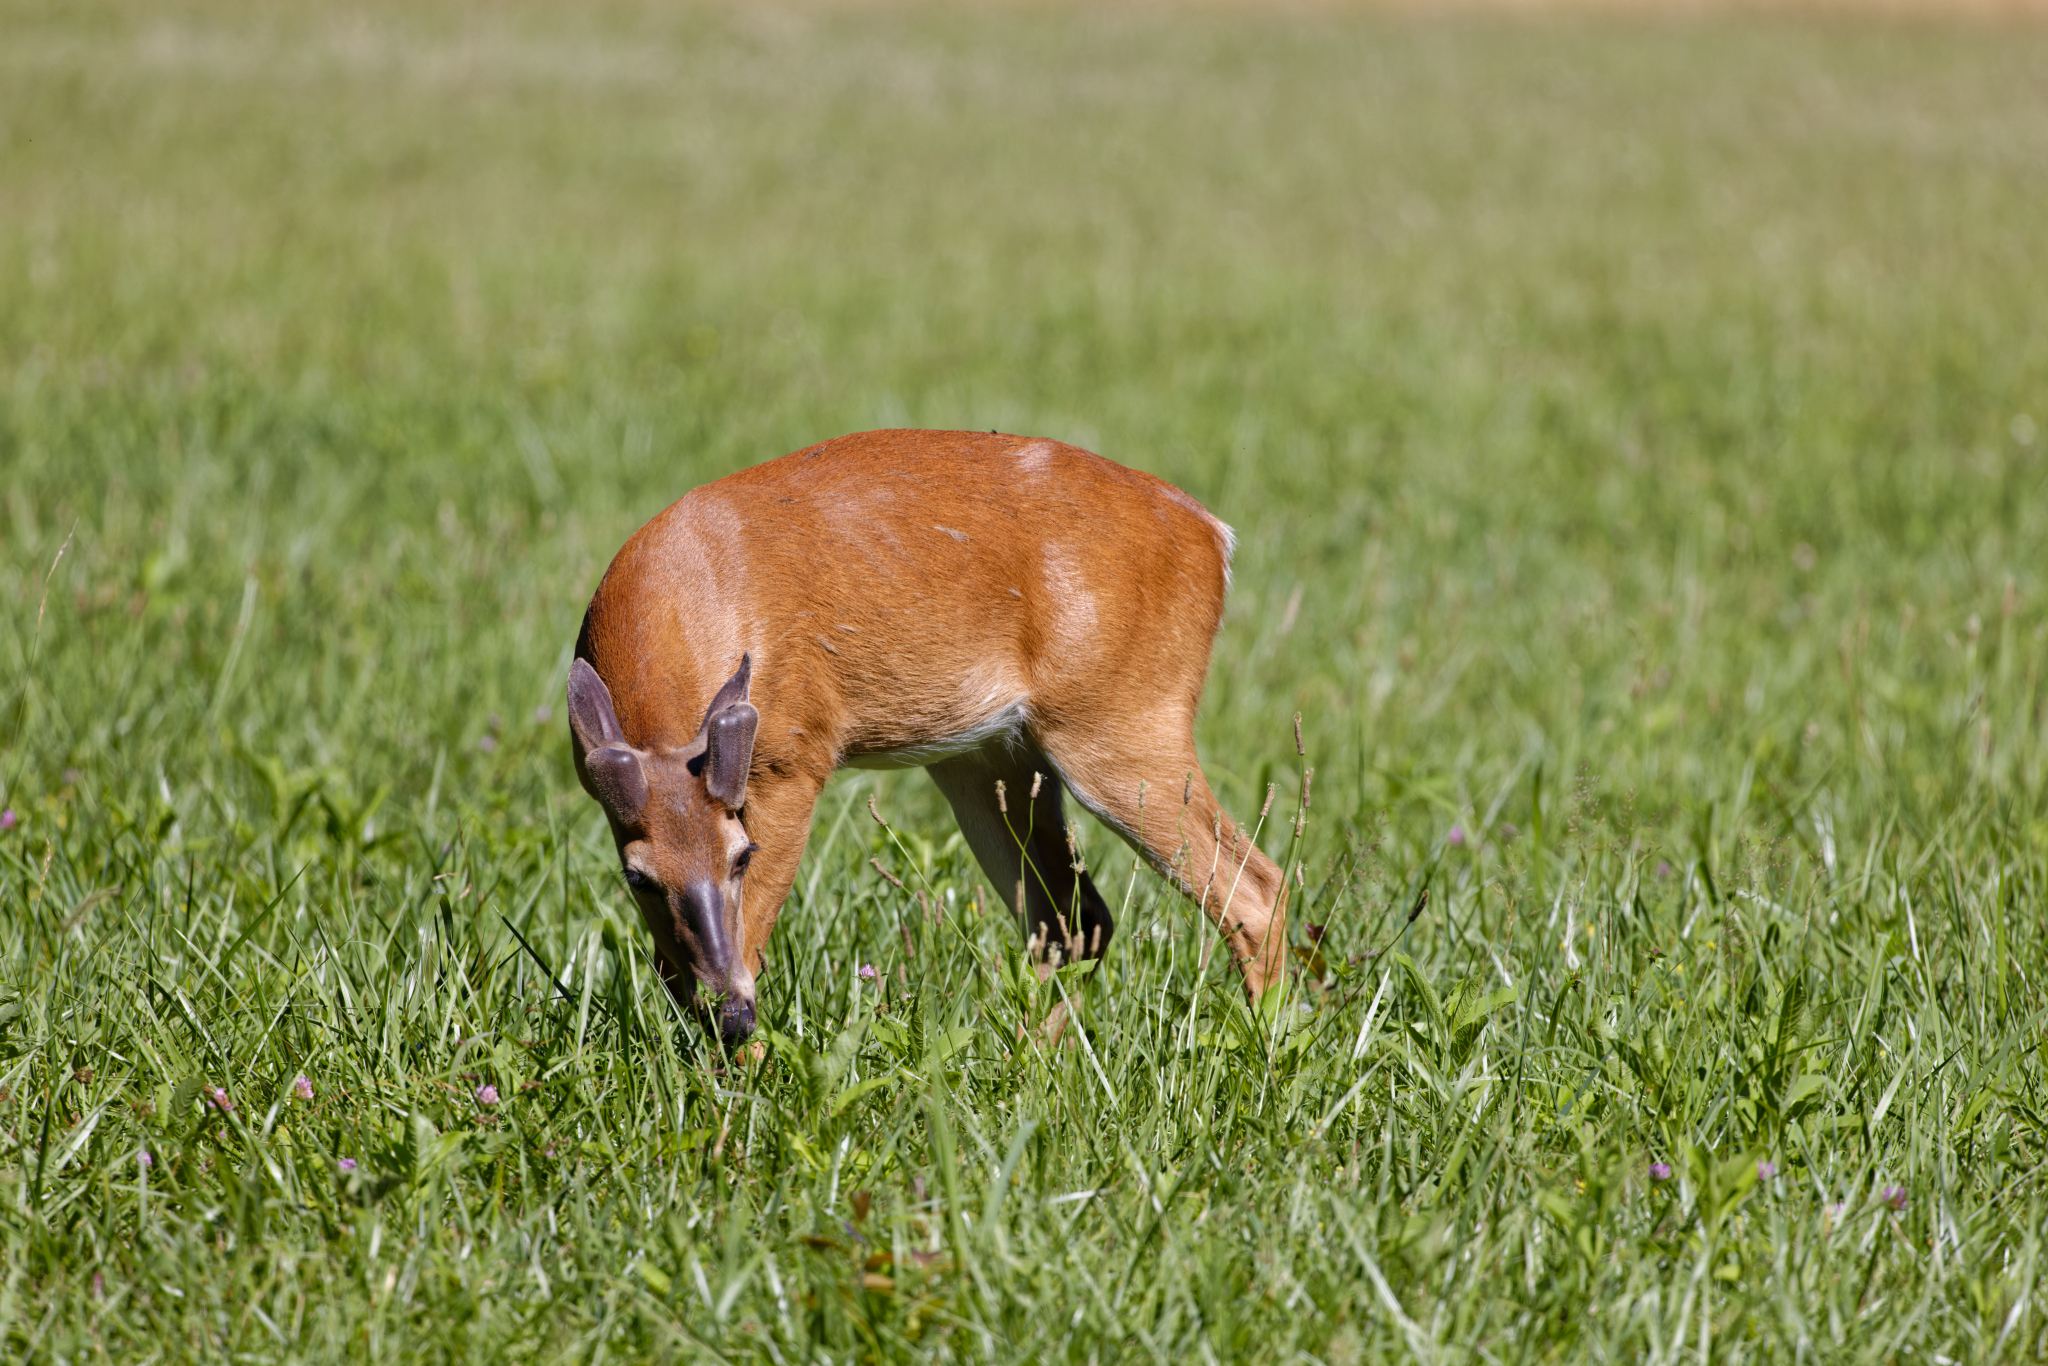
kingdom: Animalia
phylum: Chordata
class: Mammalia
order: Artiodactyla
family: Cervidae
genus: Odocoileus
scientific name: Odocoileus virginianus
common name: White-tailed deer
